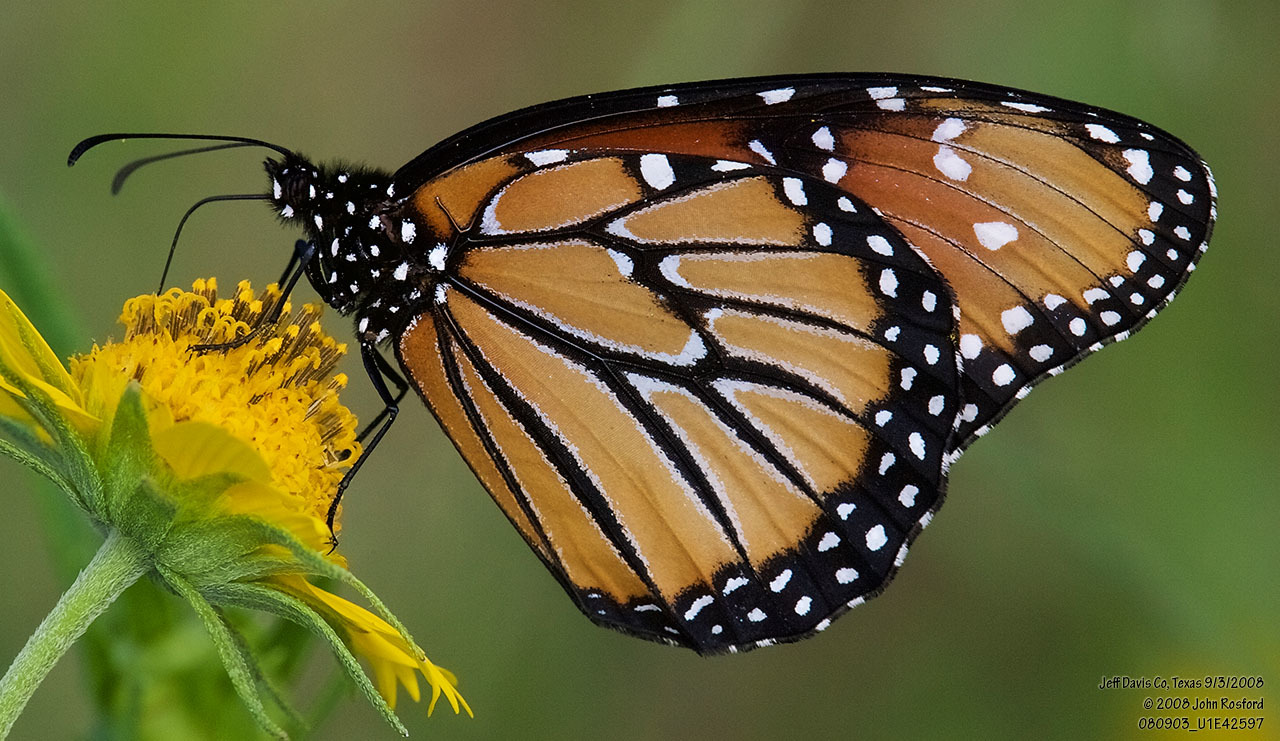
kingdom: Animalia
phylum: Arthropoda
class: Insecta
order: Lepidoptera
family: Nymphalidae
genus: Danaus
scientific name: Danaus gilippus
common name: Queen
